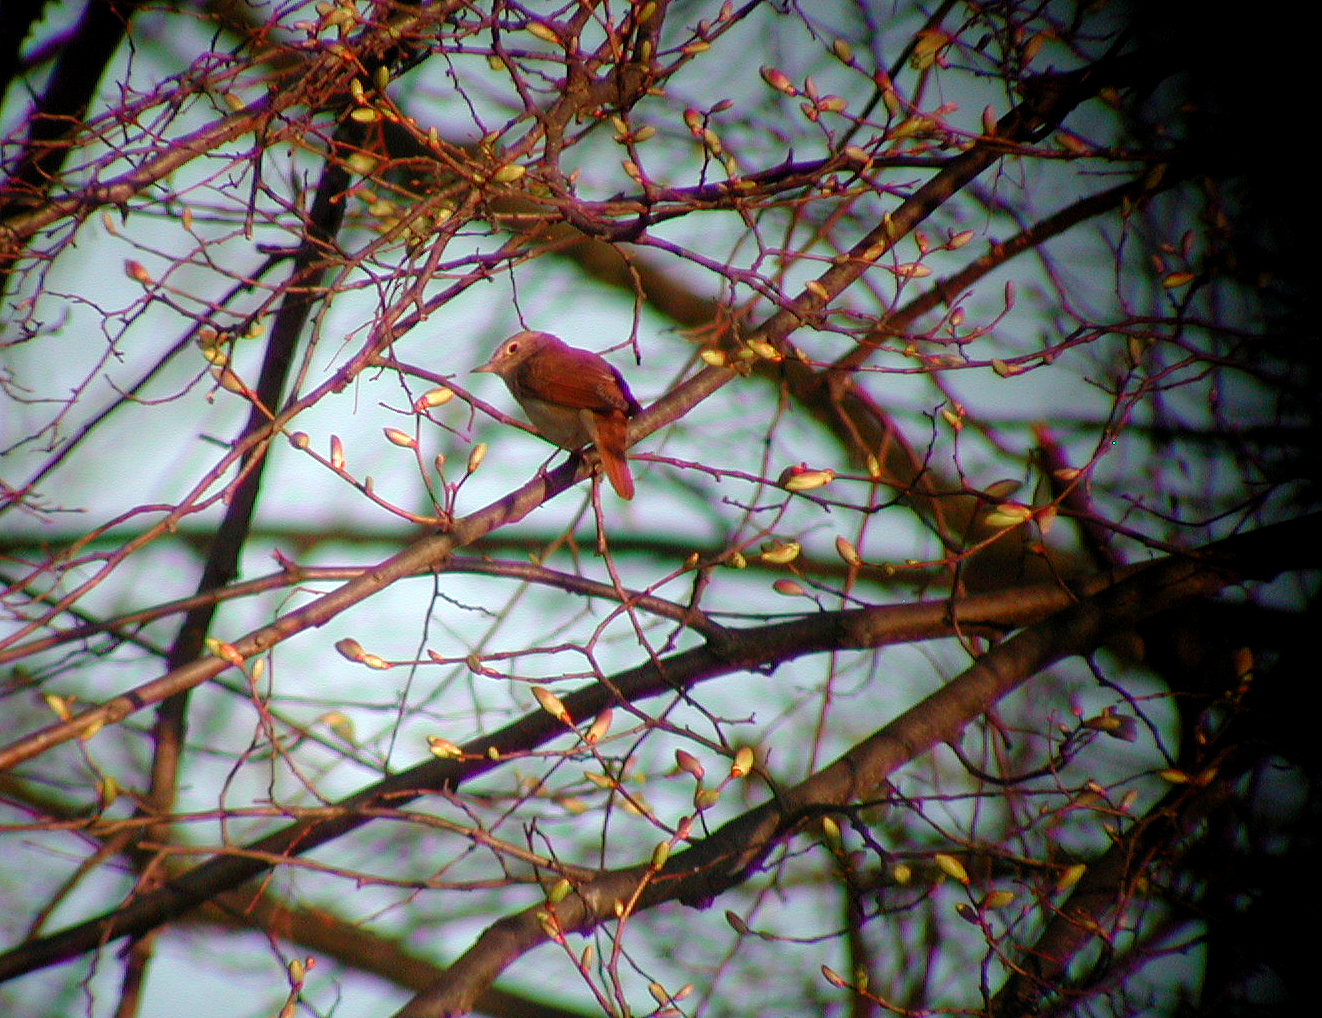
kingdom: Animalia
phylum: Chordata
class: Aves
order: Passeriformes
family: Muscicapidae
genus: Luscinia
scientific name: Luscinia megarhynchos
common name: Common nightingale
